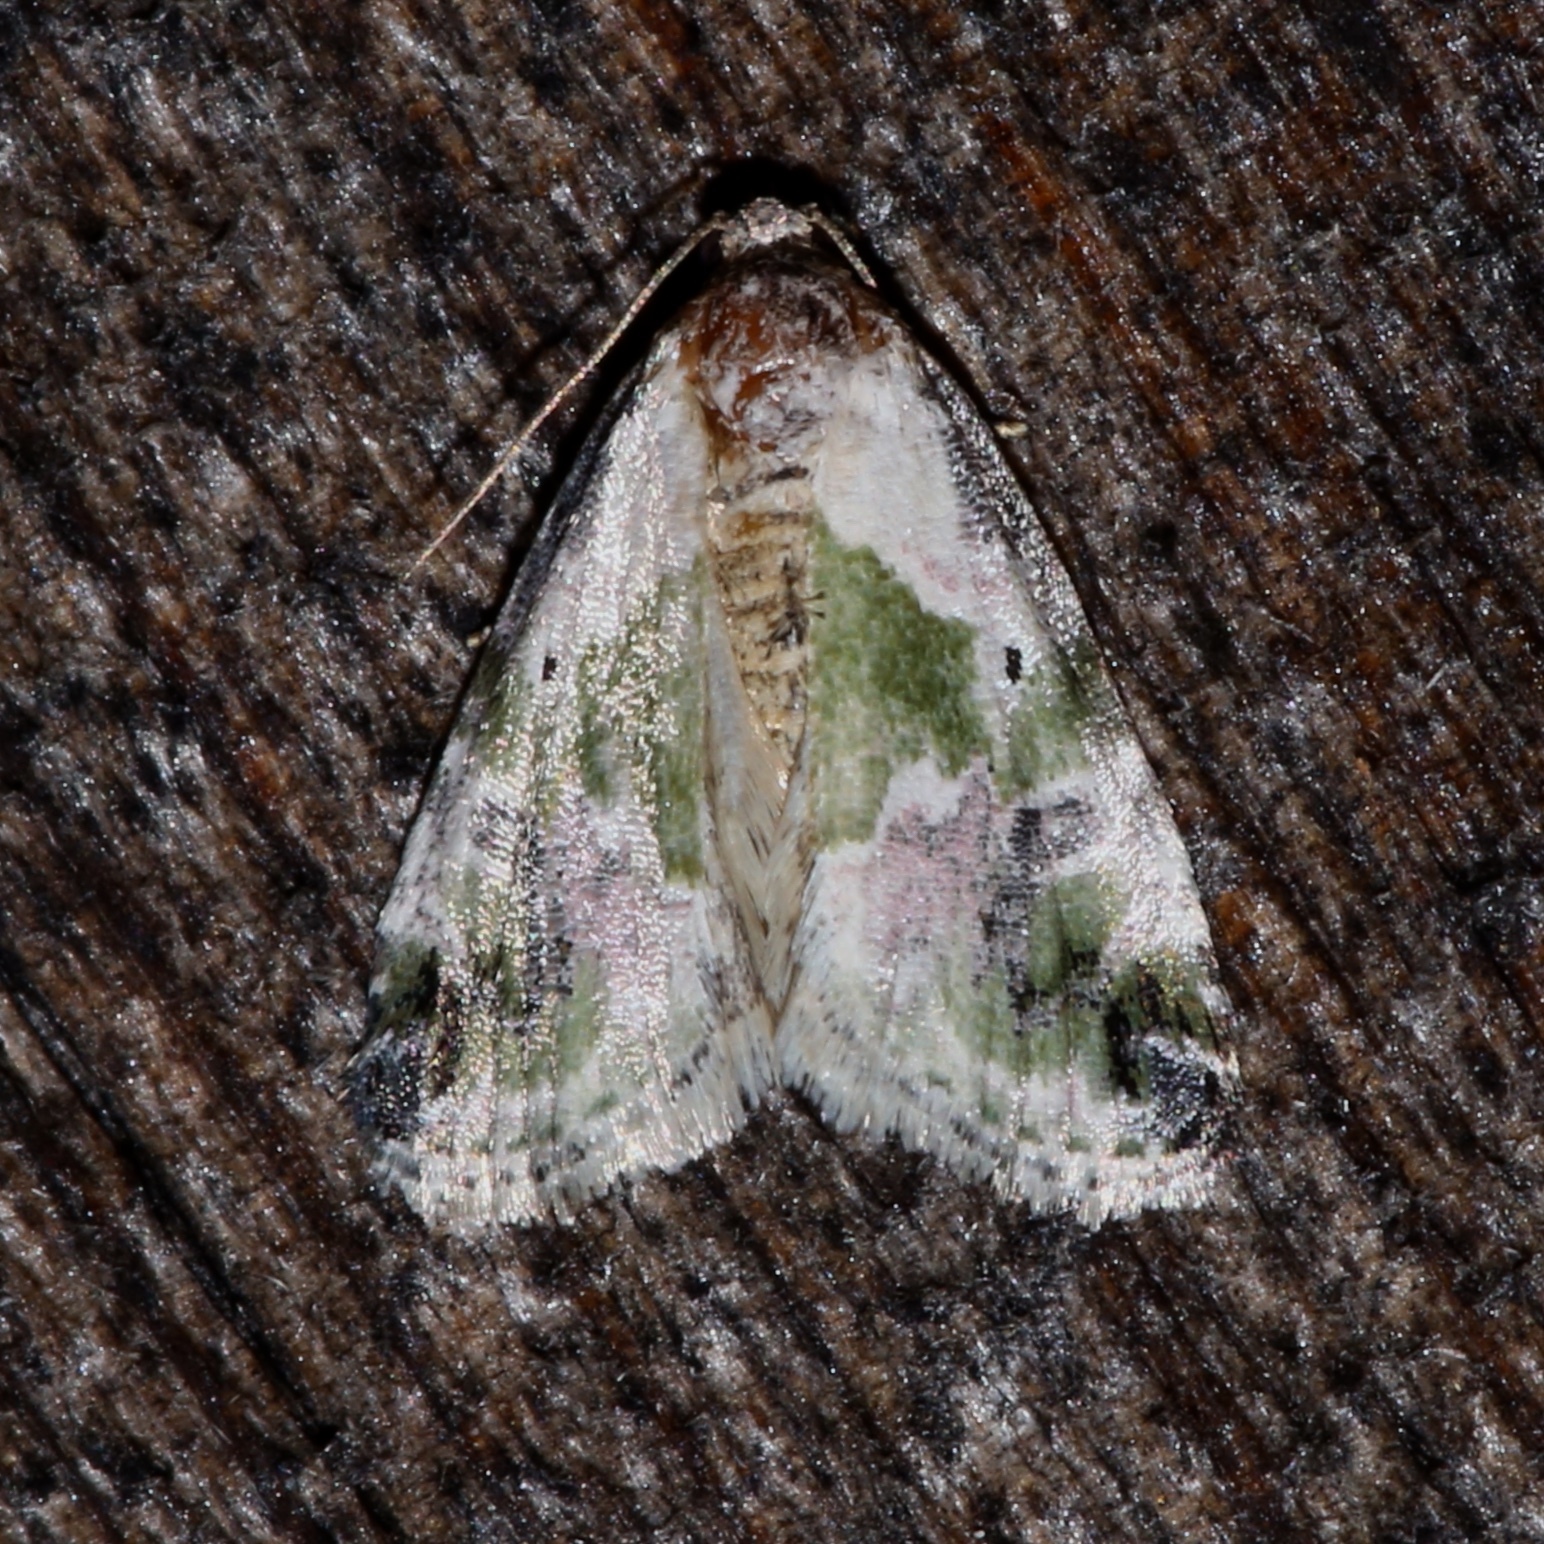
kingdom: Animalia
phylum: Arthropoda
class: Insecta
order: Lepidoptera
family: Noctuidae
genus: Maliattha
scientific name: Maliattha synochitis
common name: Black-dotted glyph
